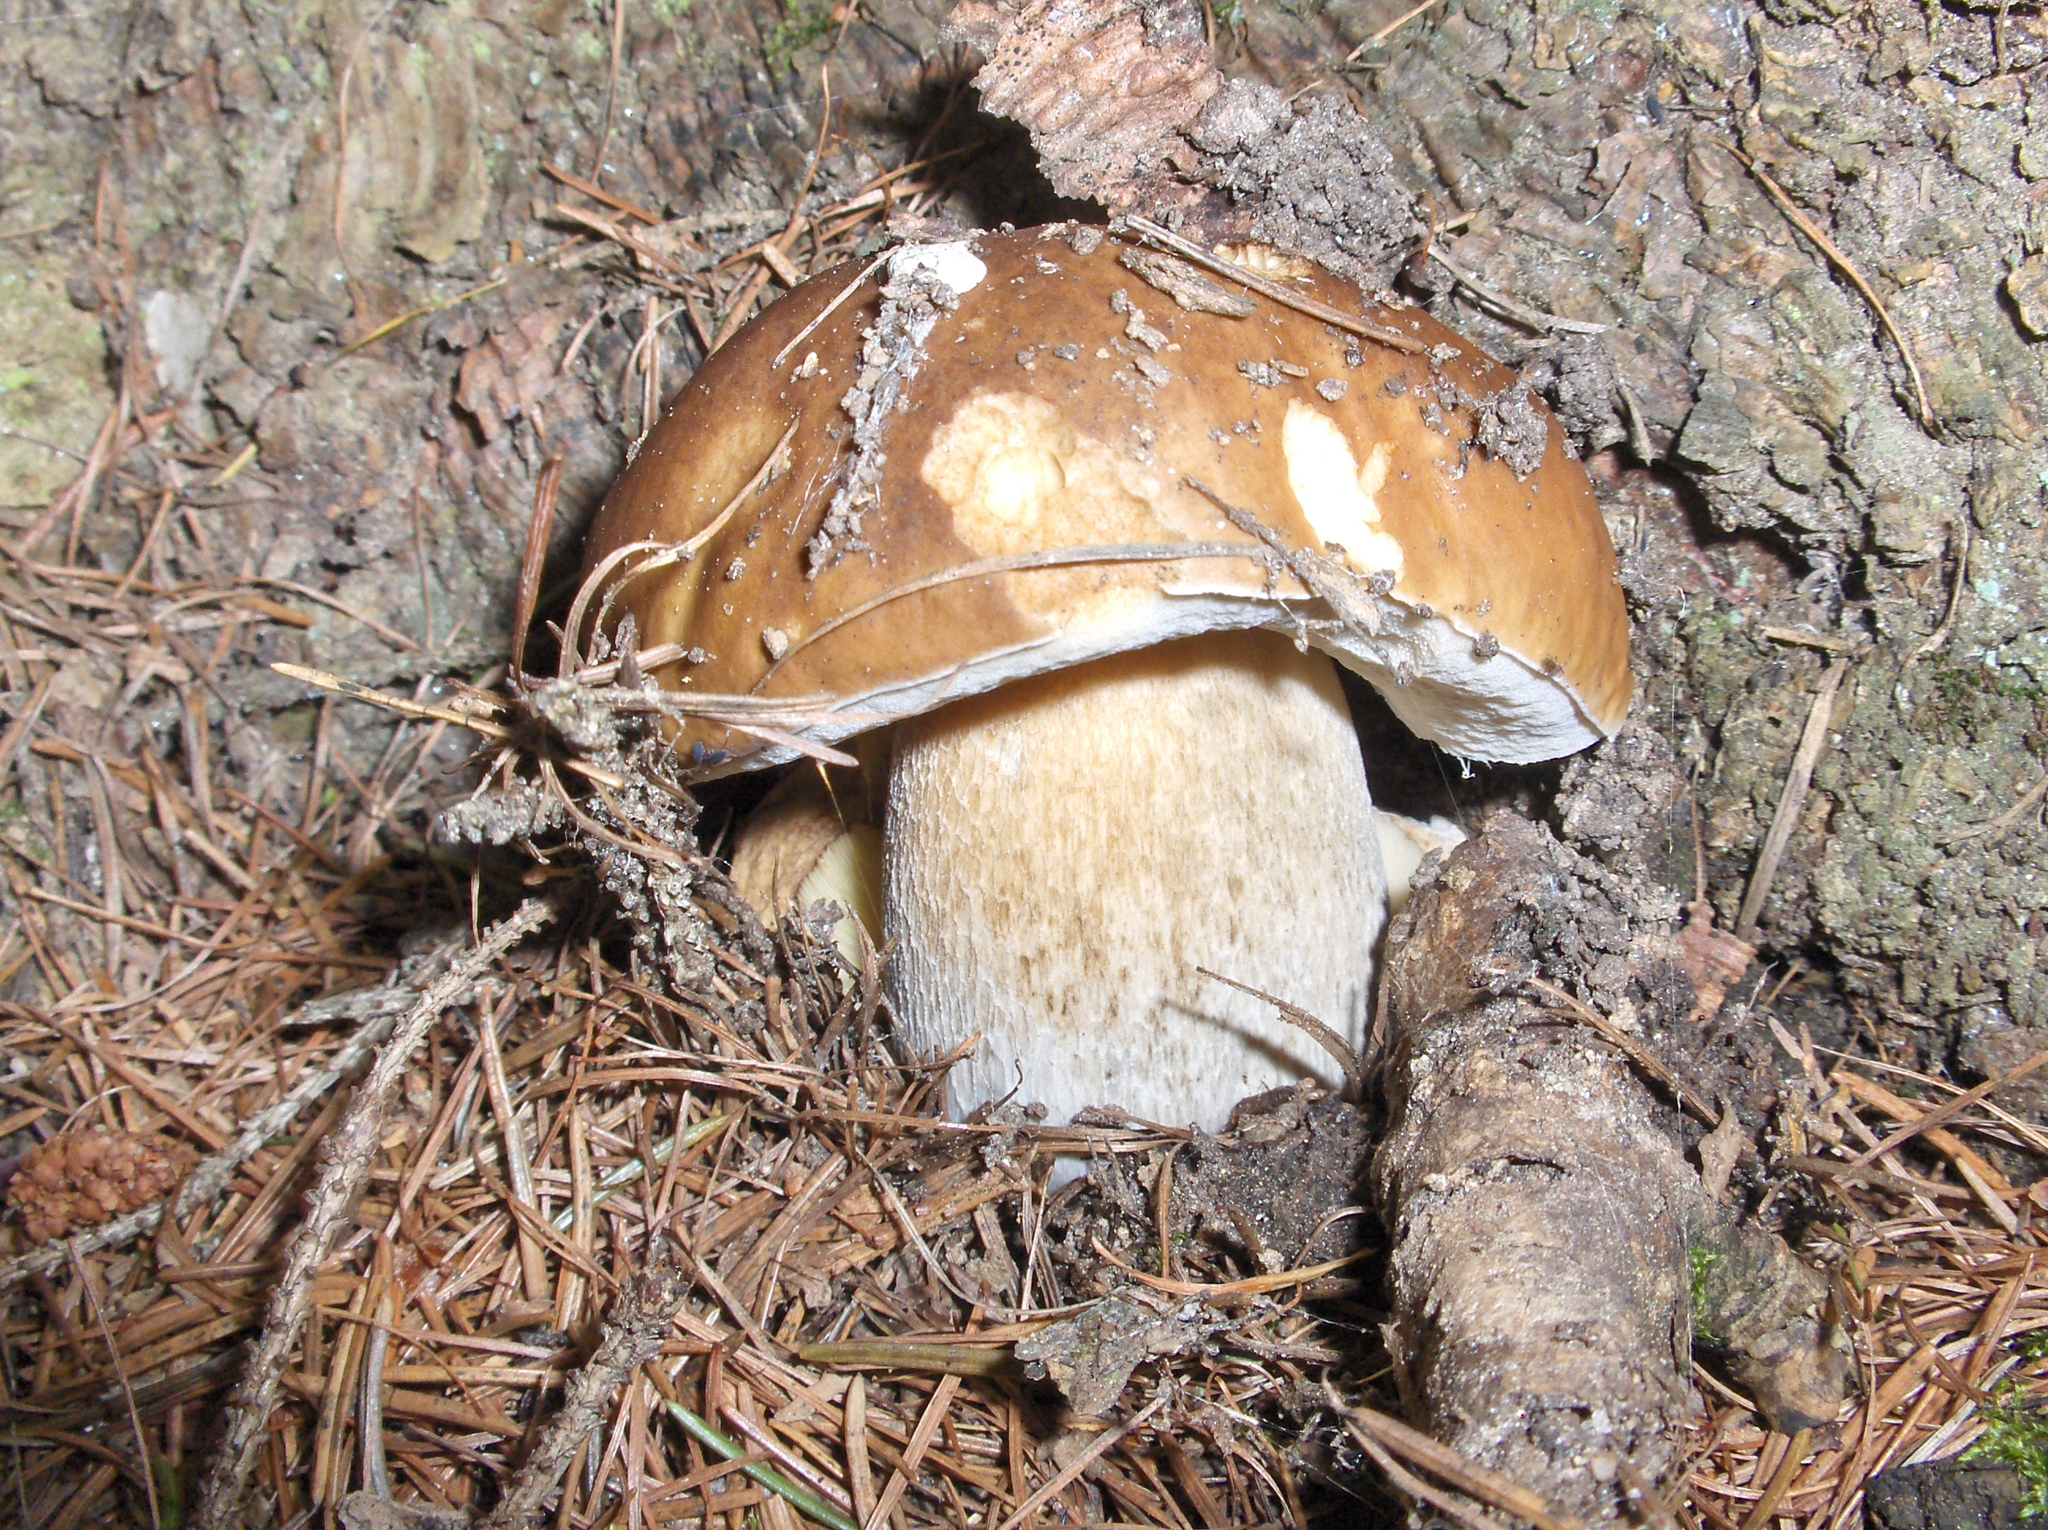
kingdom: Fungi
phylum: Basidiomycota
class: Agaricomycetes
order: Boletales
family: Boletaceae
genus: Boletus
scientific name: Boletus edulis
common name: Cep
